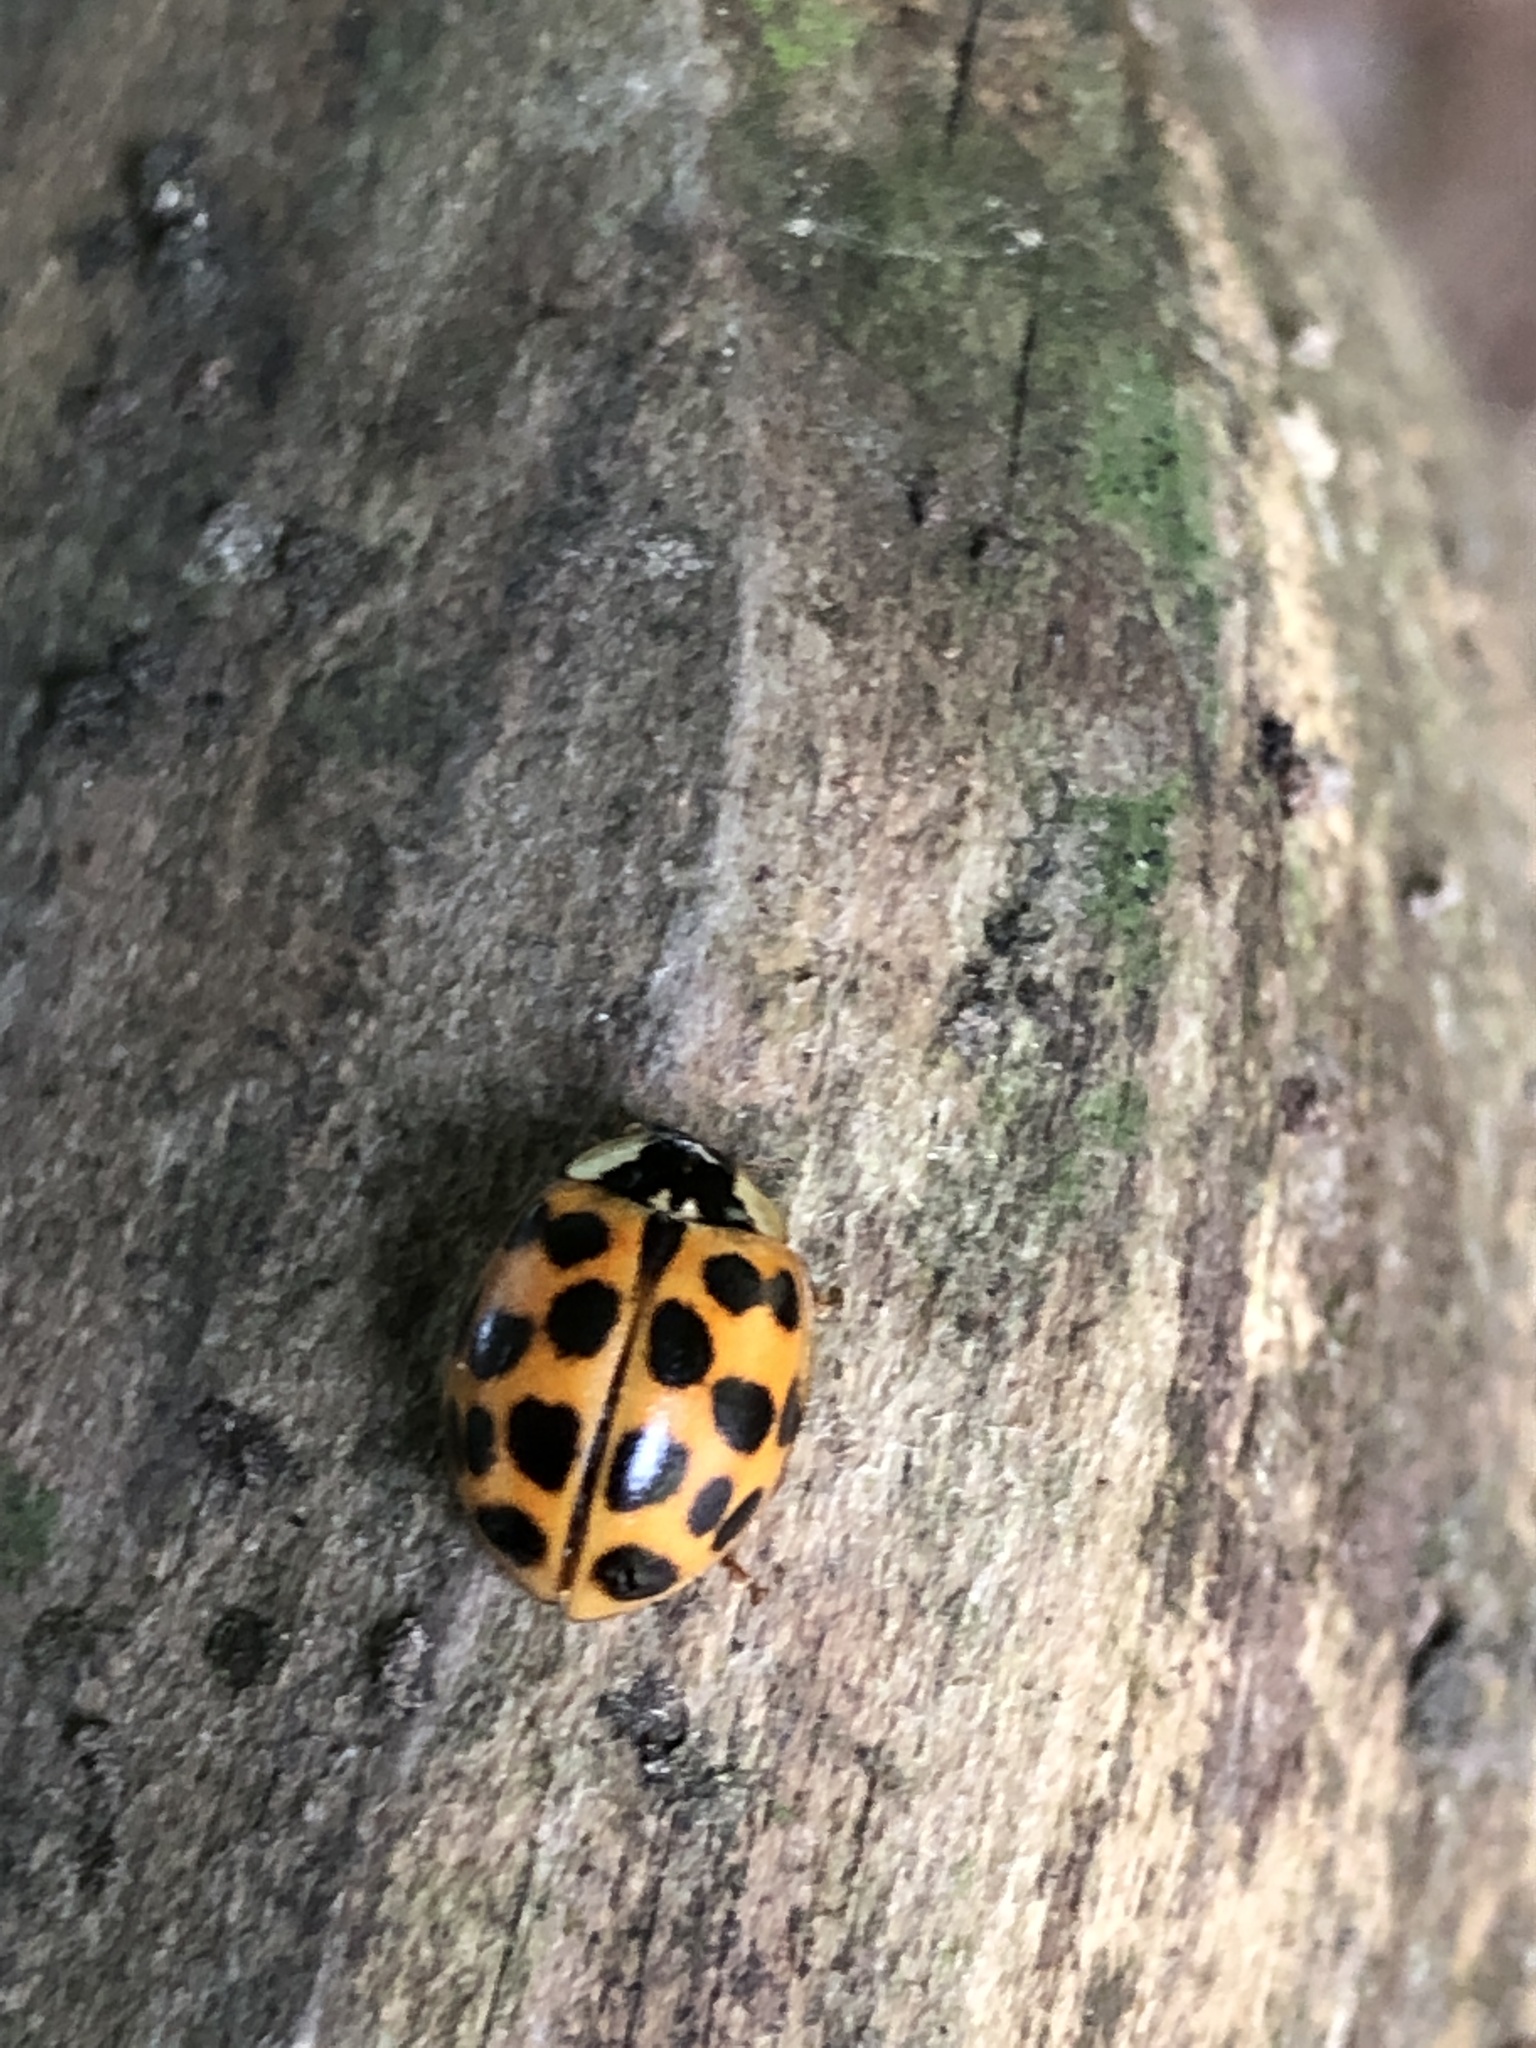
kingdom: Animalia
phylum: Arthropoda
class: Insecta
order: Coleoptera
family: Coccinellidae
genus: Harmonia
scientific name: Harmonia axyridis
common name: Harlequin ladybird
